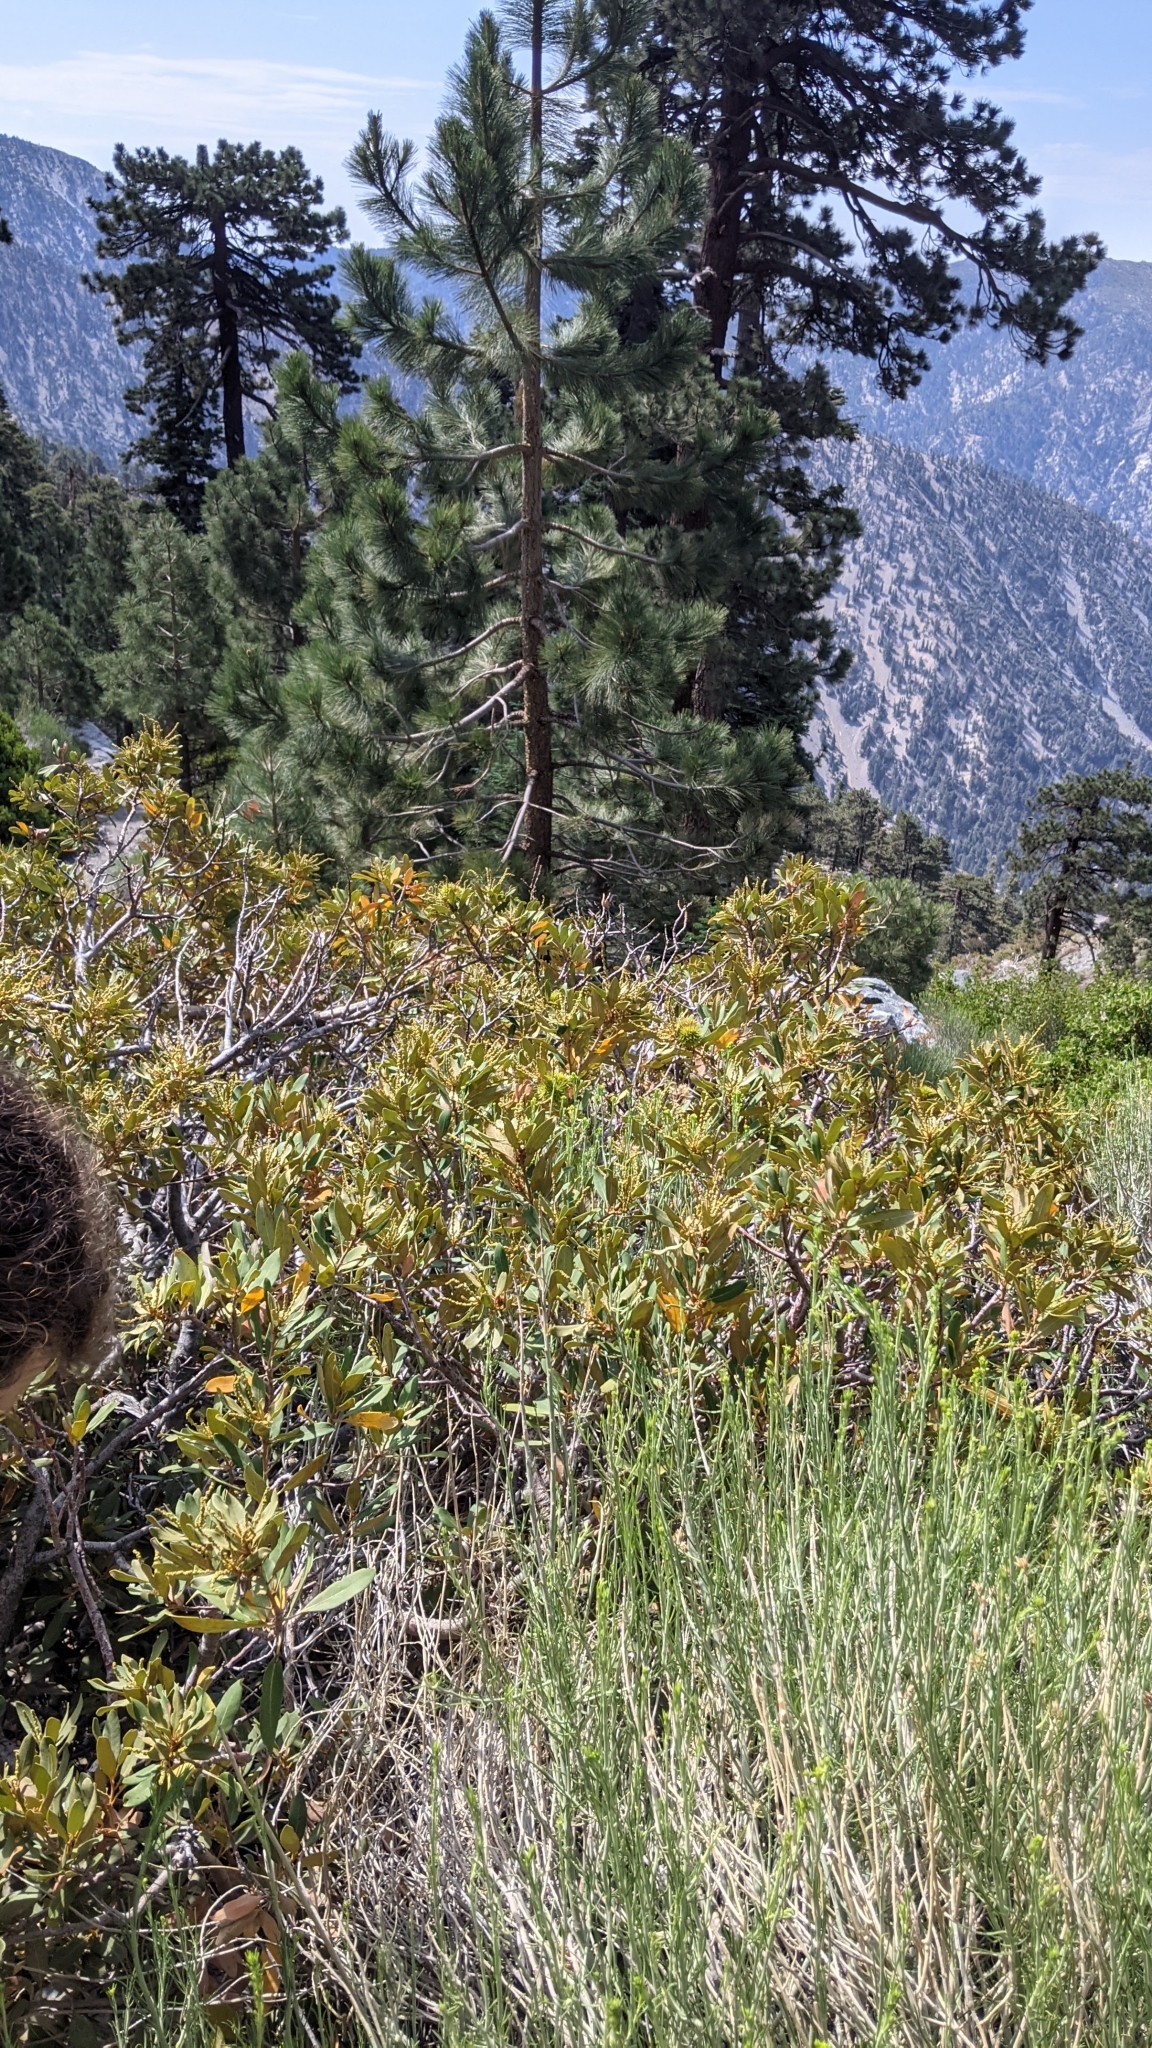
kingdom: Plantae
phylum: Tracheophyta
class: Magnoliopsida
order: Fagales
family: Fagaceae
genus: Chrysolepis
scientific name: Chrysolepis sempervirens
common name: Bush chinquapin
